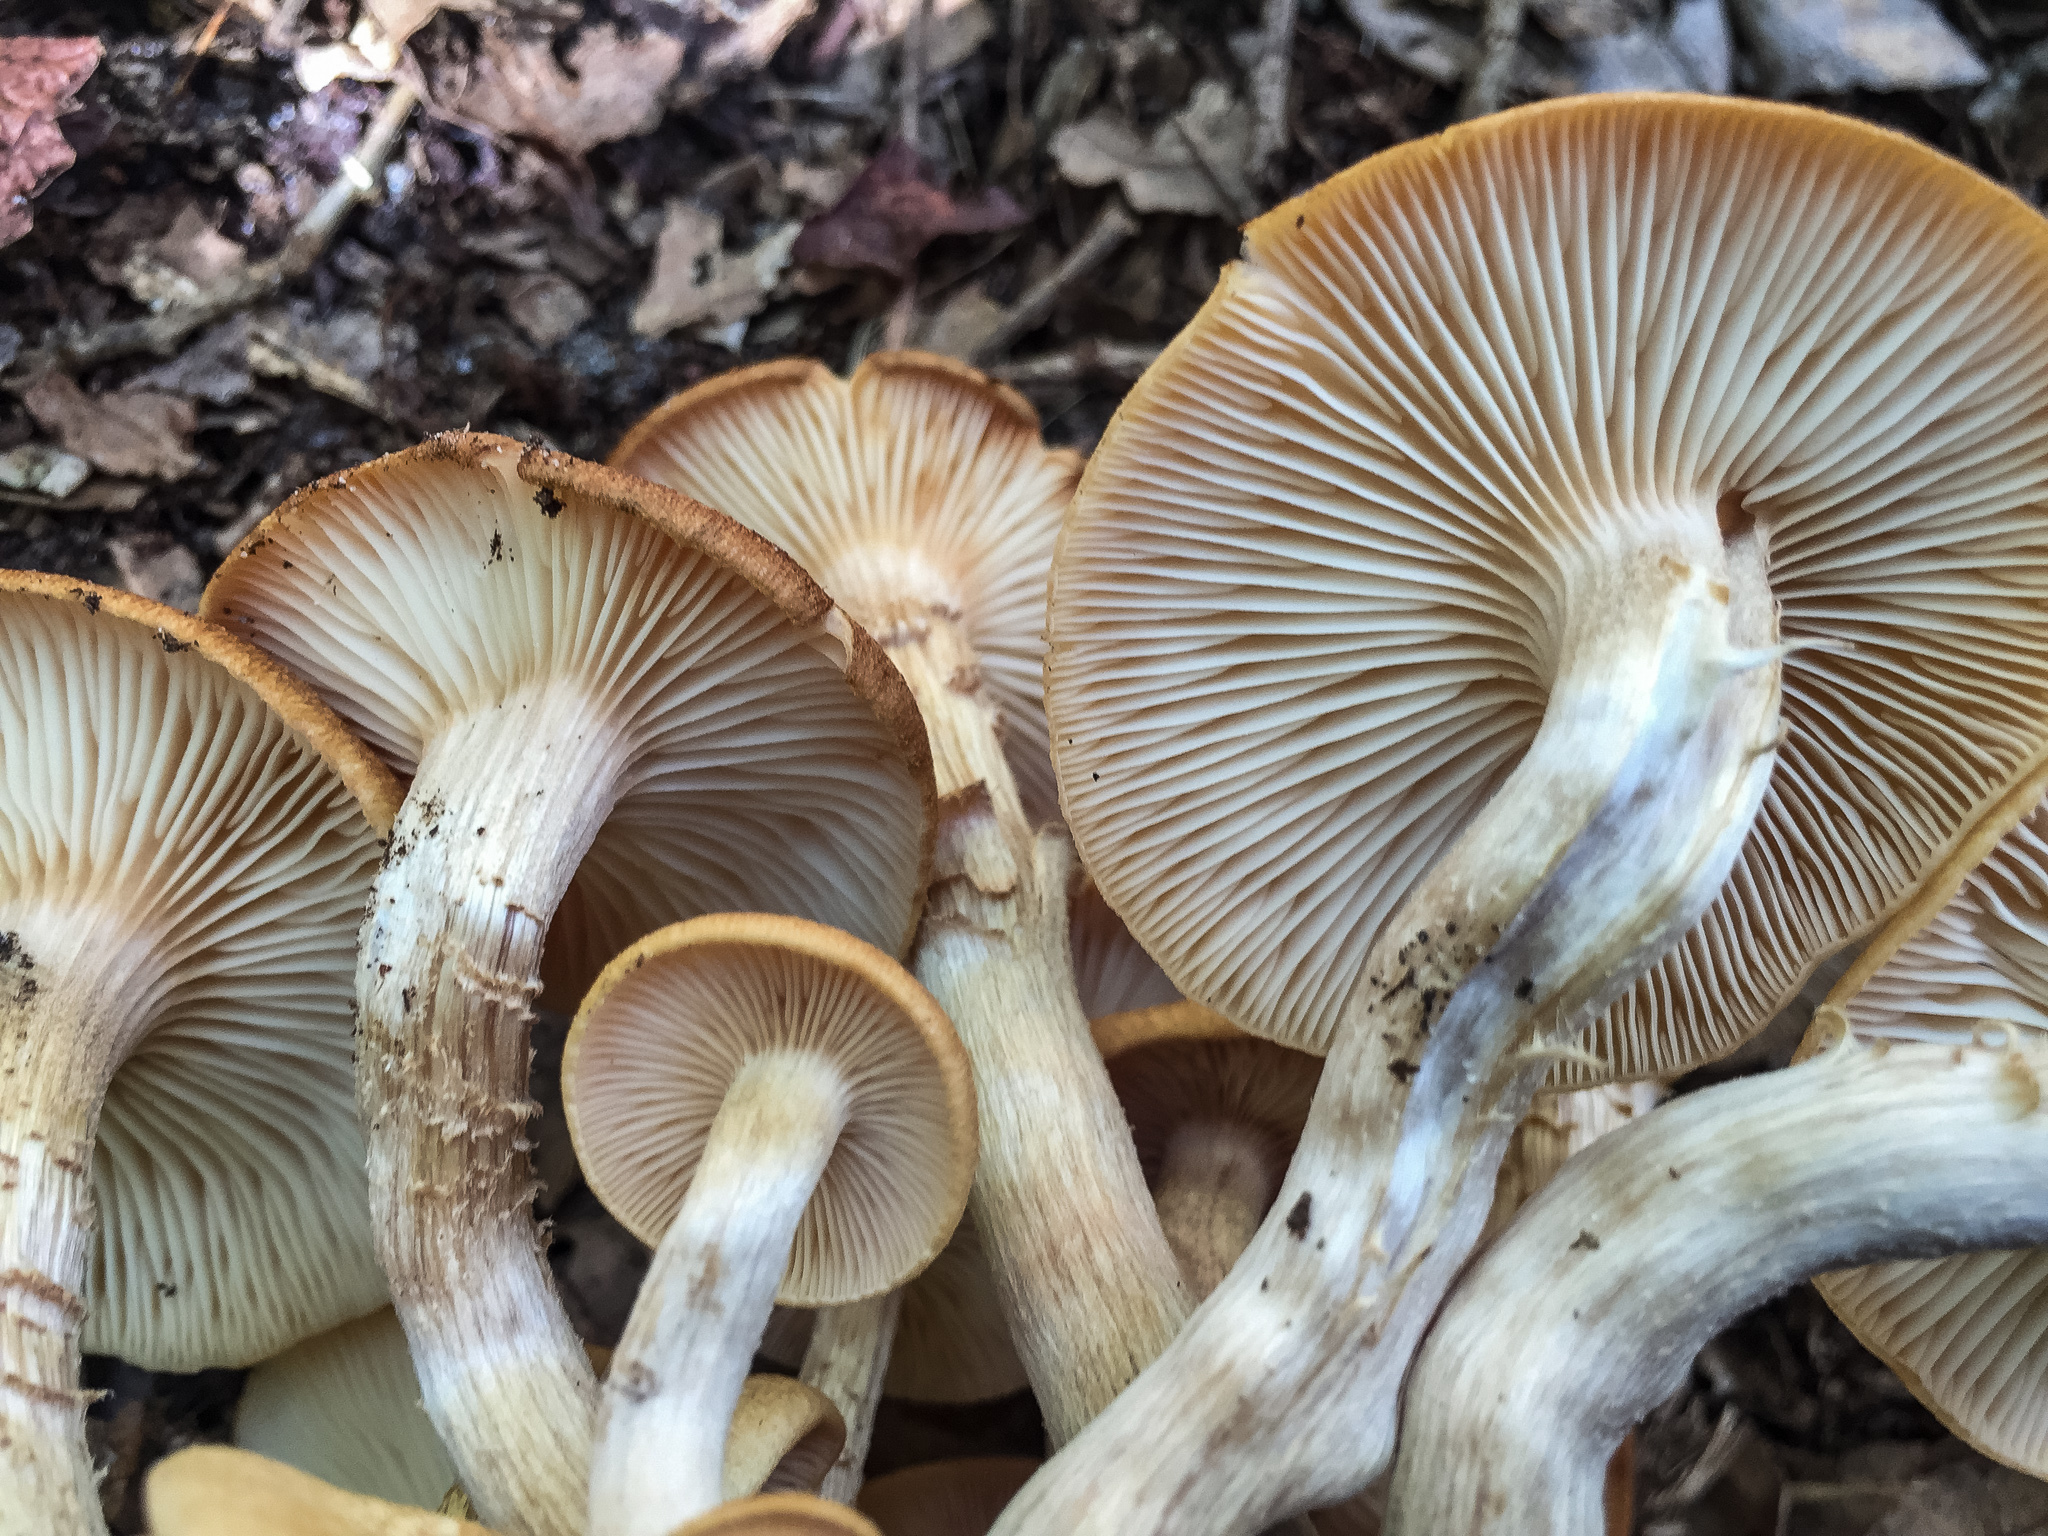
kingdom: Fungi
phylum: Basidiomycota
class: Agaricomycetes
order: Agaricales
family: Physalacriaceae
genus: Desarmillaria
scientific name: Desarmillaria caespitosa
